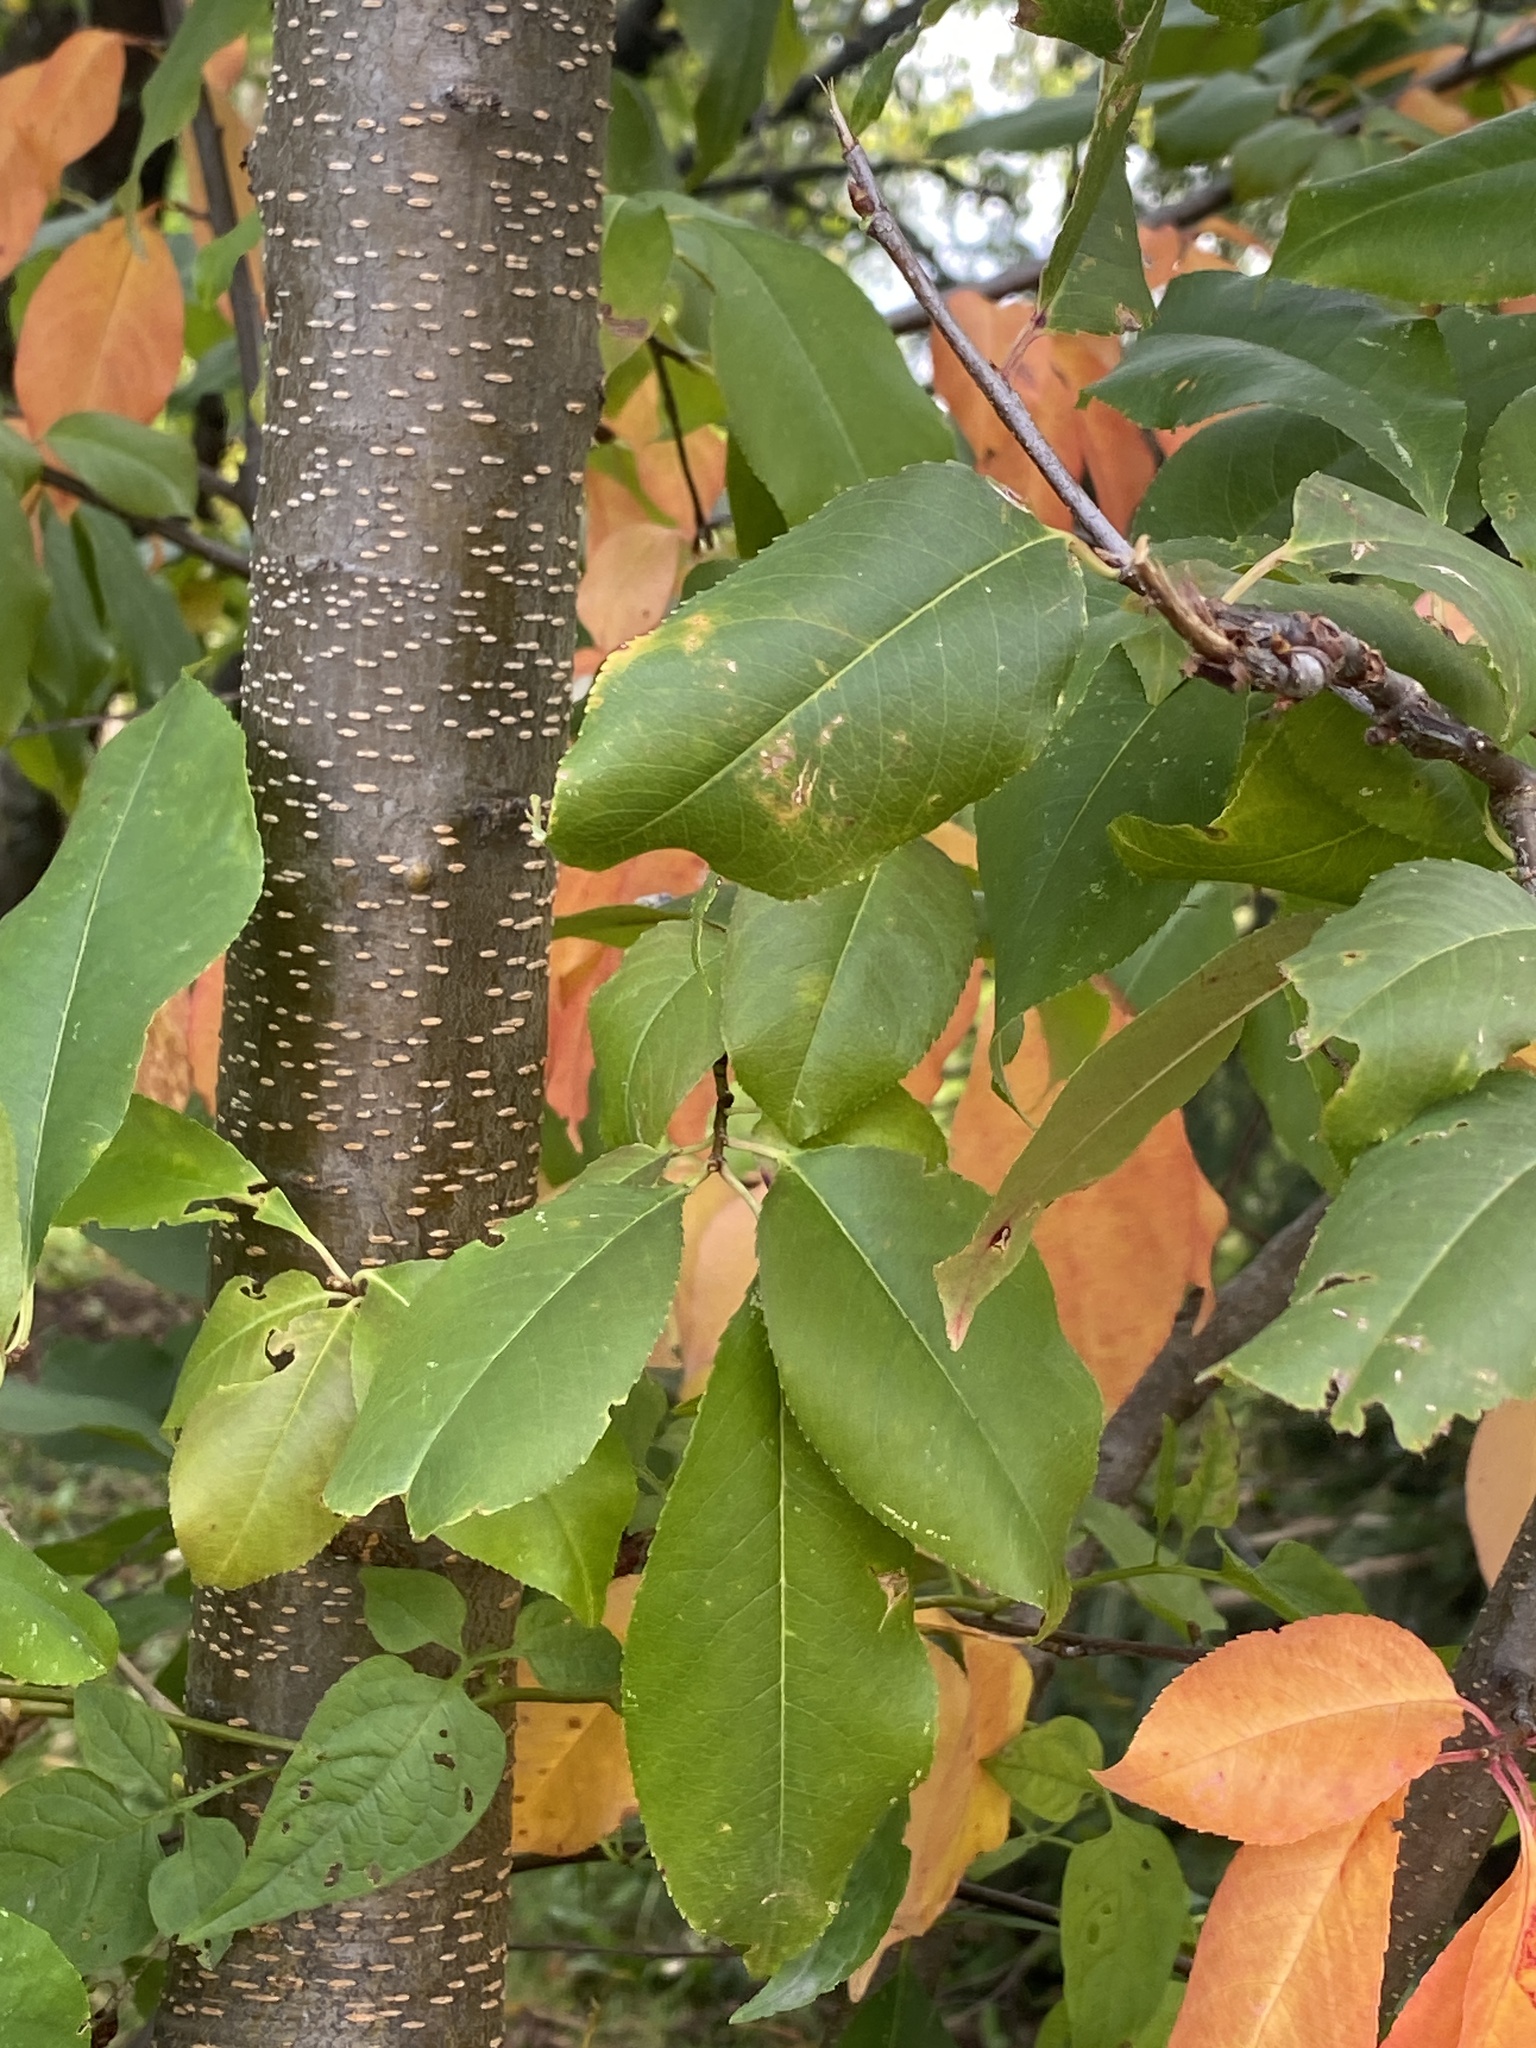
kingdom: Plantae
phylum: Tracheophyta
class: Magnoliopsida
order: Rosales
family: Rosaceae
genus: Prunus
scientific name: Prunus serotina
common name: Black cherry
